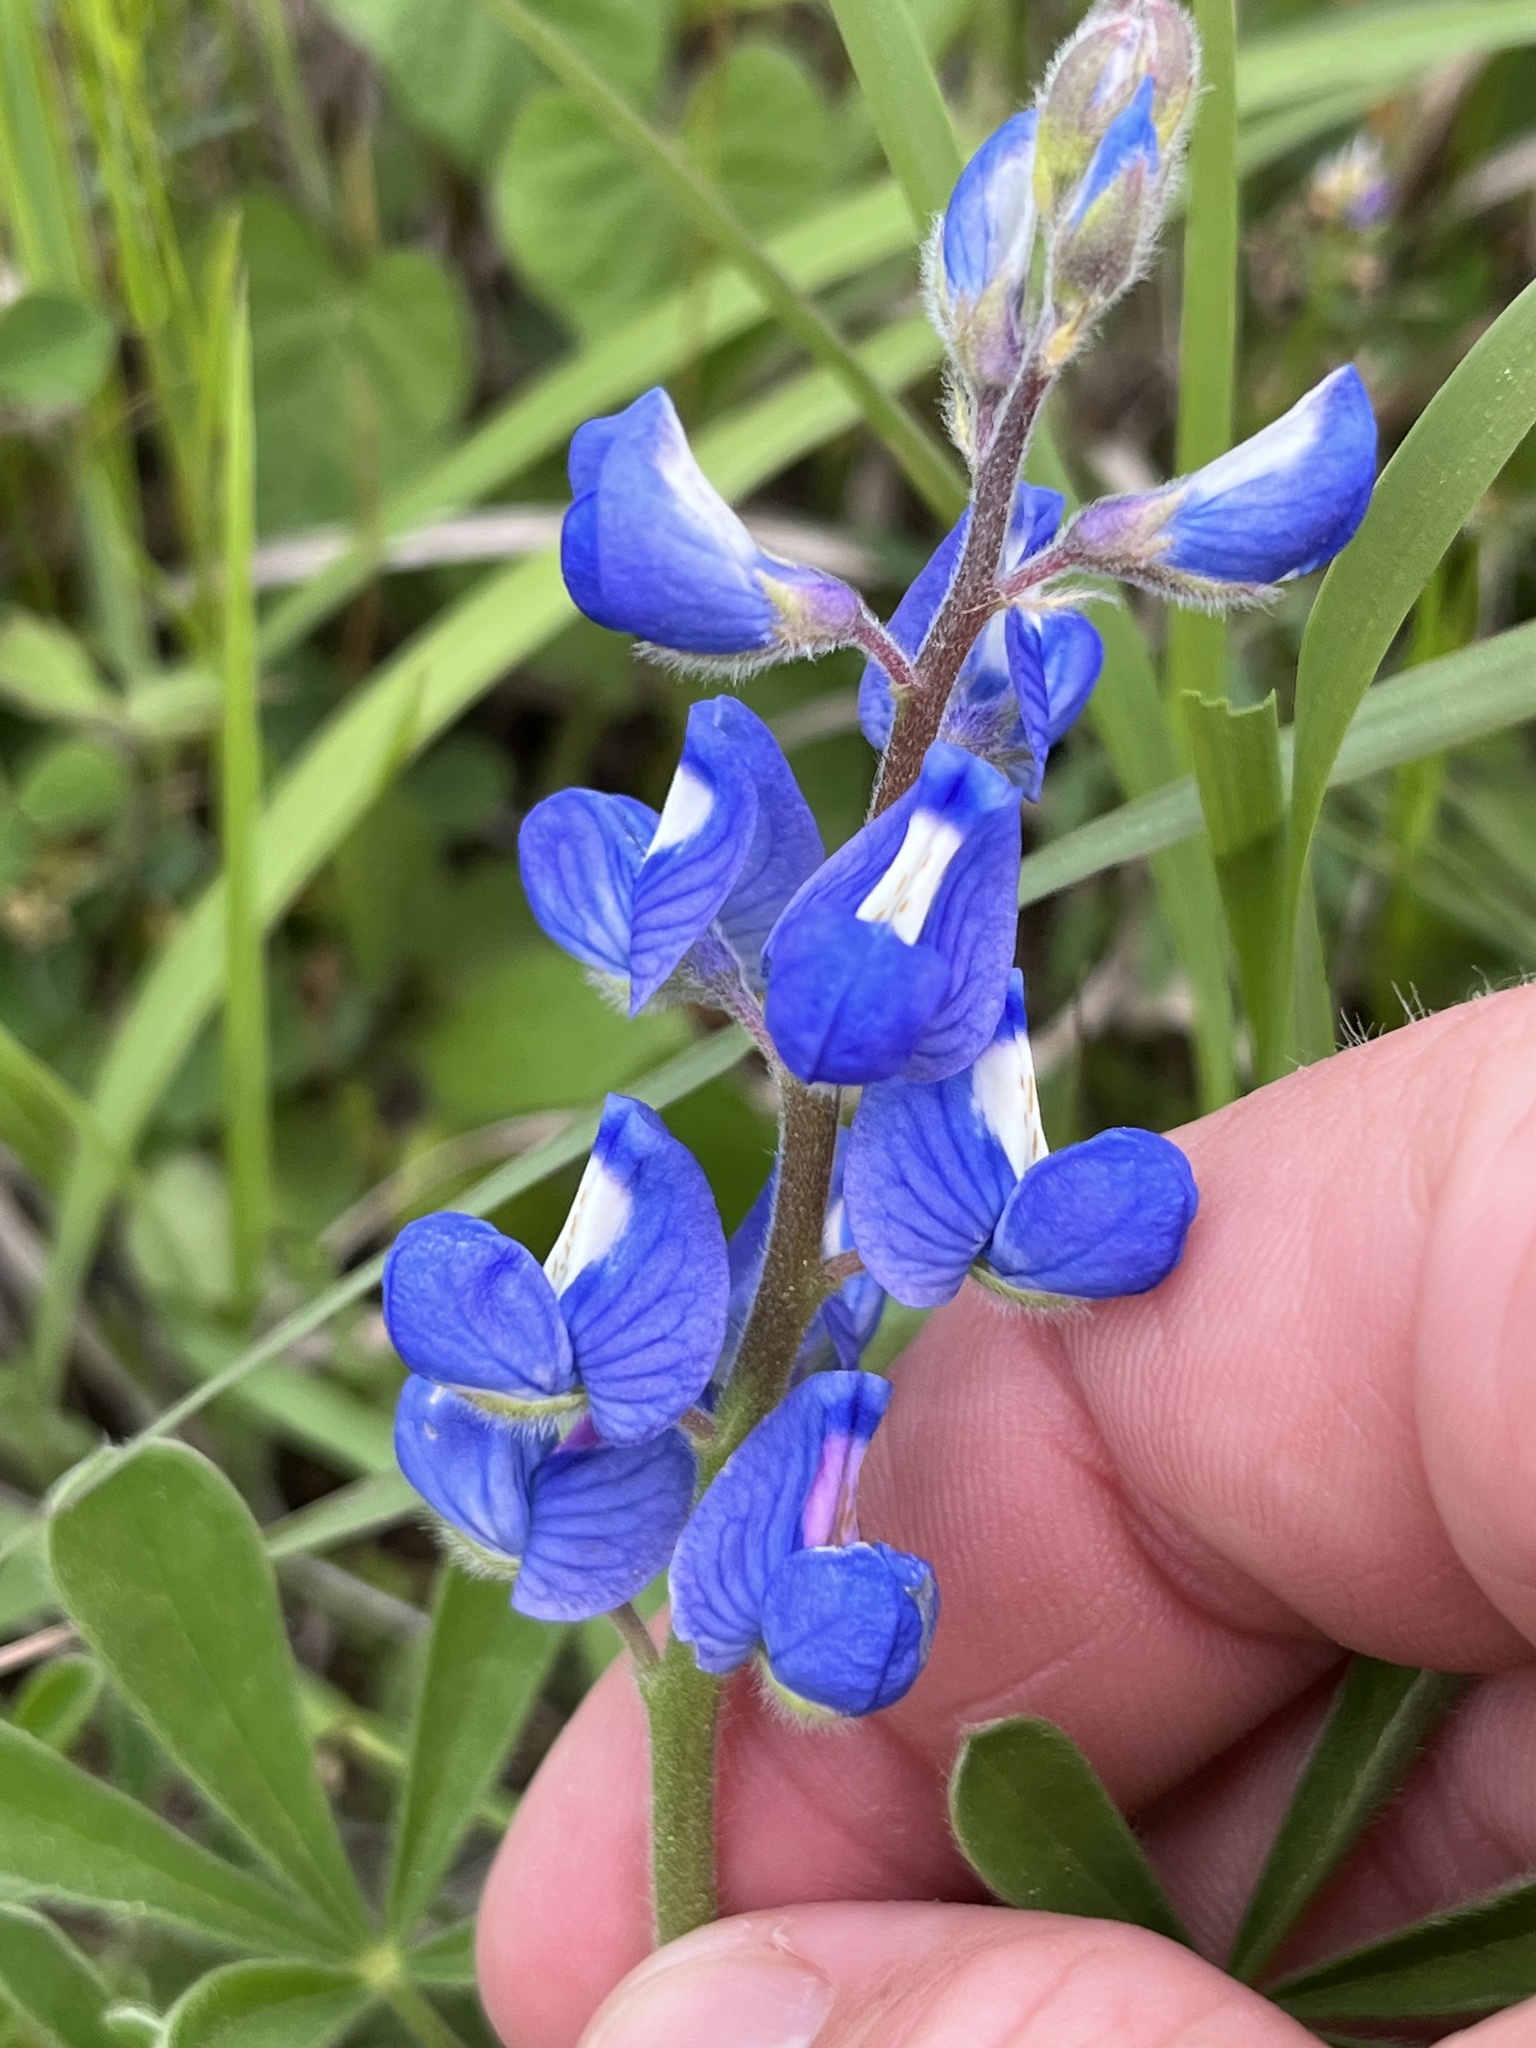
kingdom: Plantae
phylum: Tracheophyta
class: Magnoliopsida
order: Fabales
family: Fabaceae
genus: Lupinus
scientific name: Lupinus subcarnosus
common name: Texas bluebonnet
